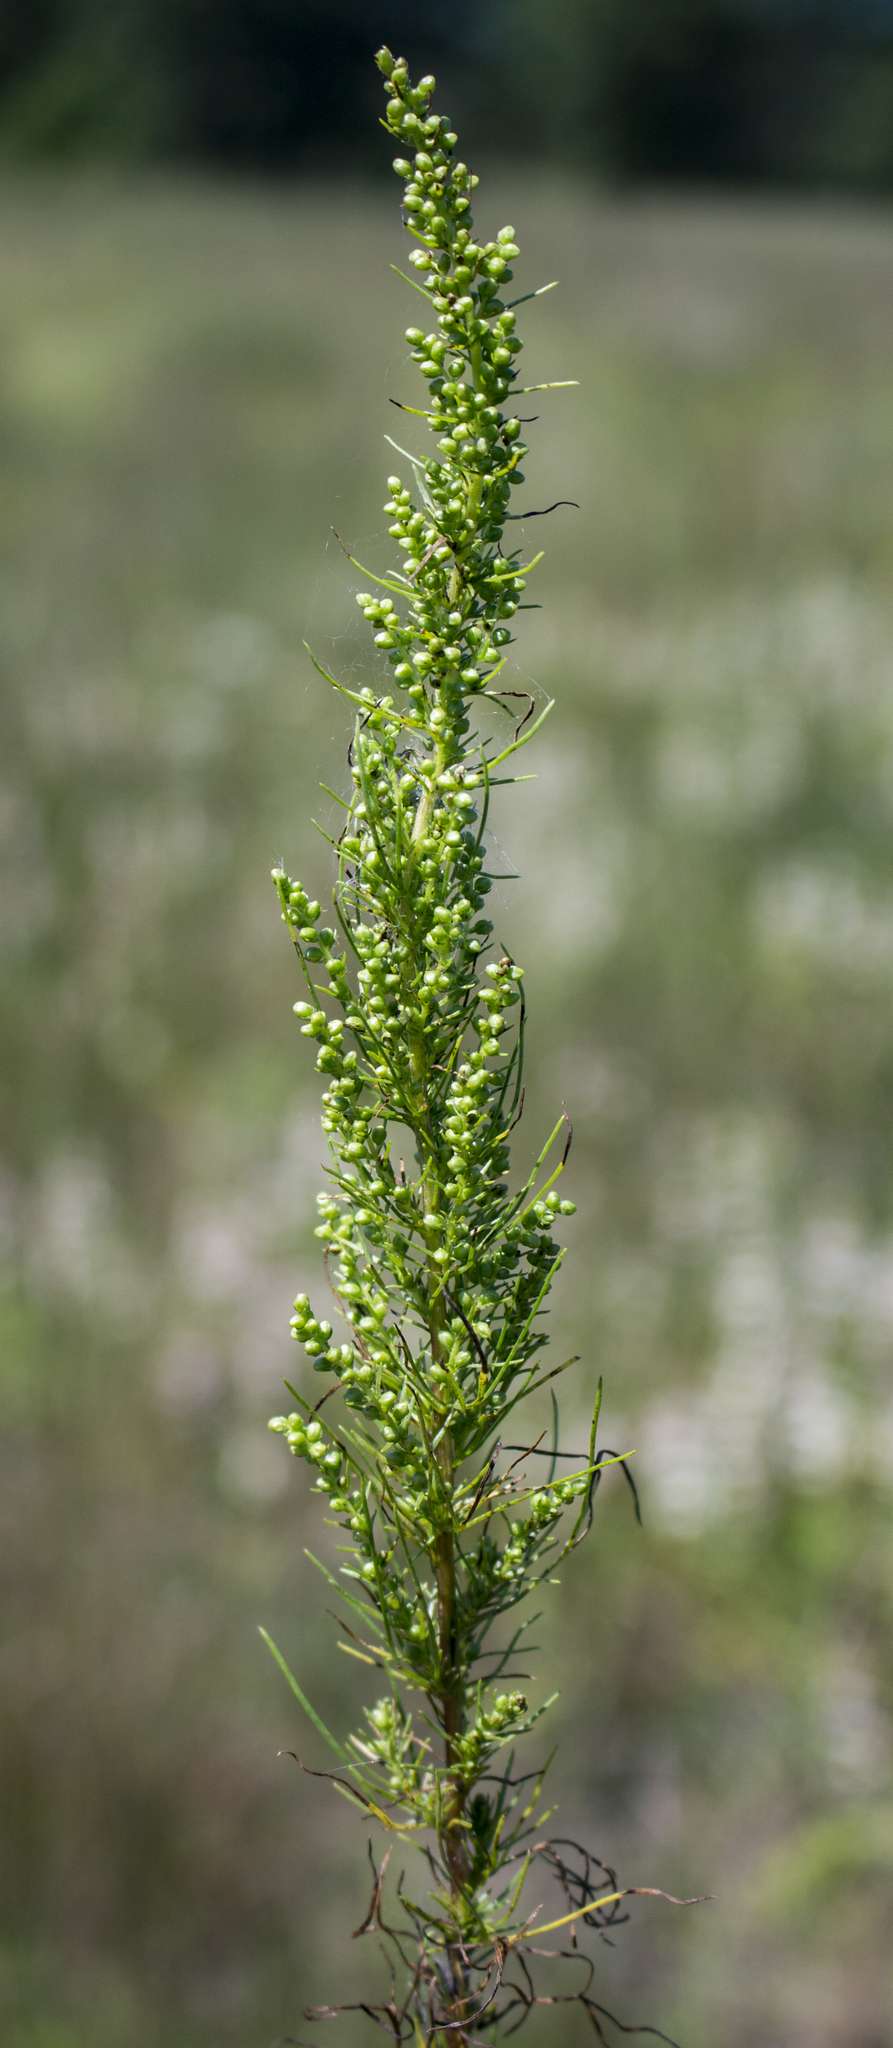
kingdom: Plantae
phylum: Tracheophyta
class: Magnoliopsida
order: Asterales
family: Asteraceae
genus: Artemisia
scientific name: Artemisia campestris
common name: Field wormwood
